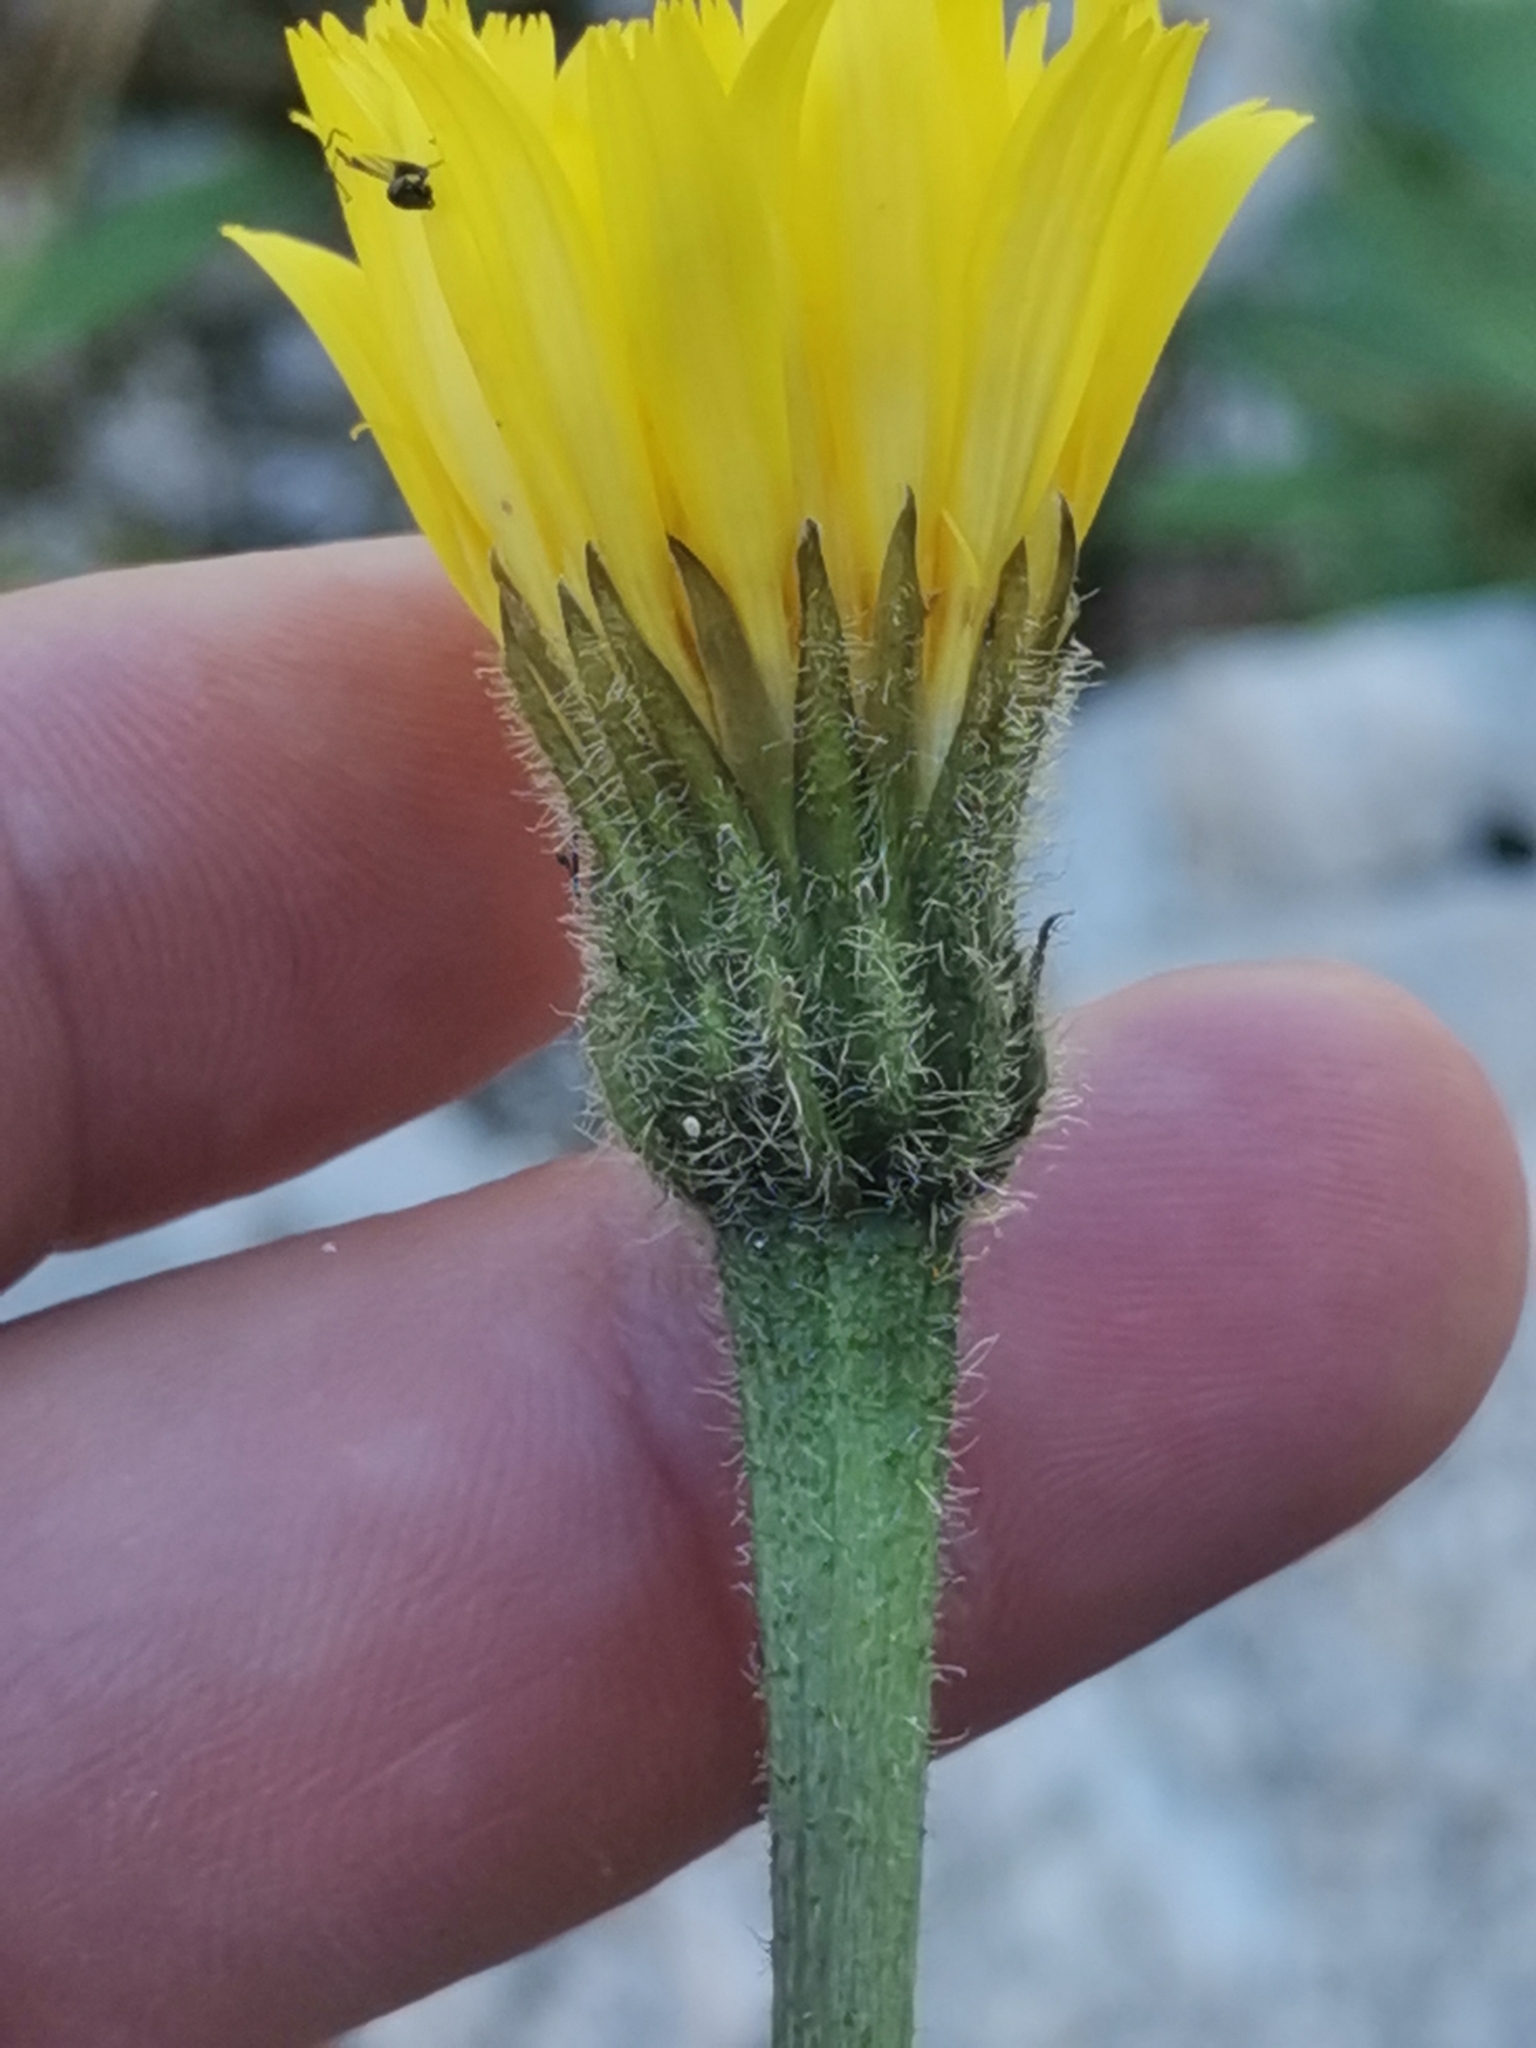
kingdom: Plantae
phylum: Tracheophyta
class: Magnoliopsida
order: Asterales
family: Asteraceae
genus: Leontodon
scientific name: Leontodon hispidus
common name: Rough hawkbit
